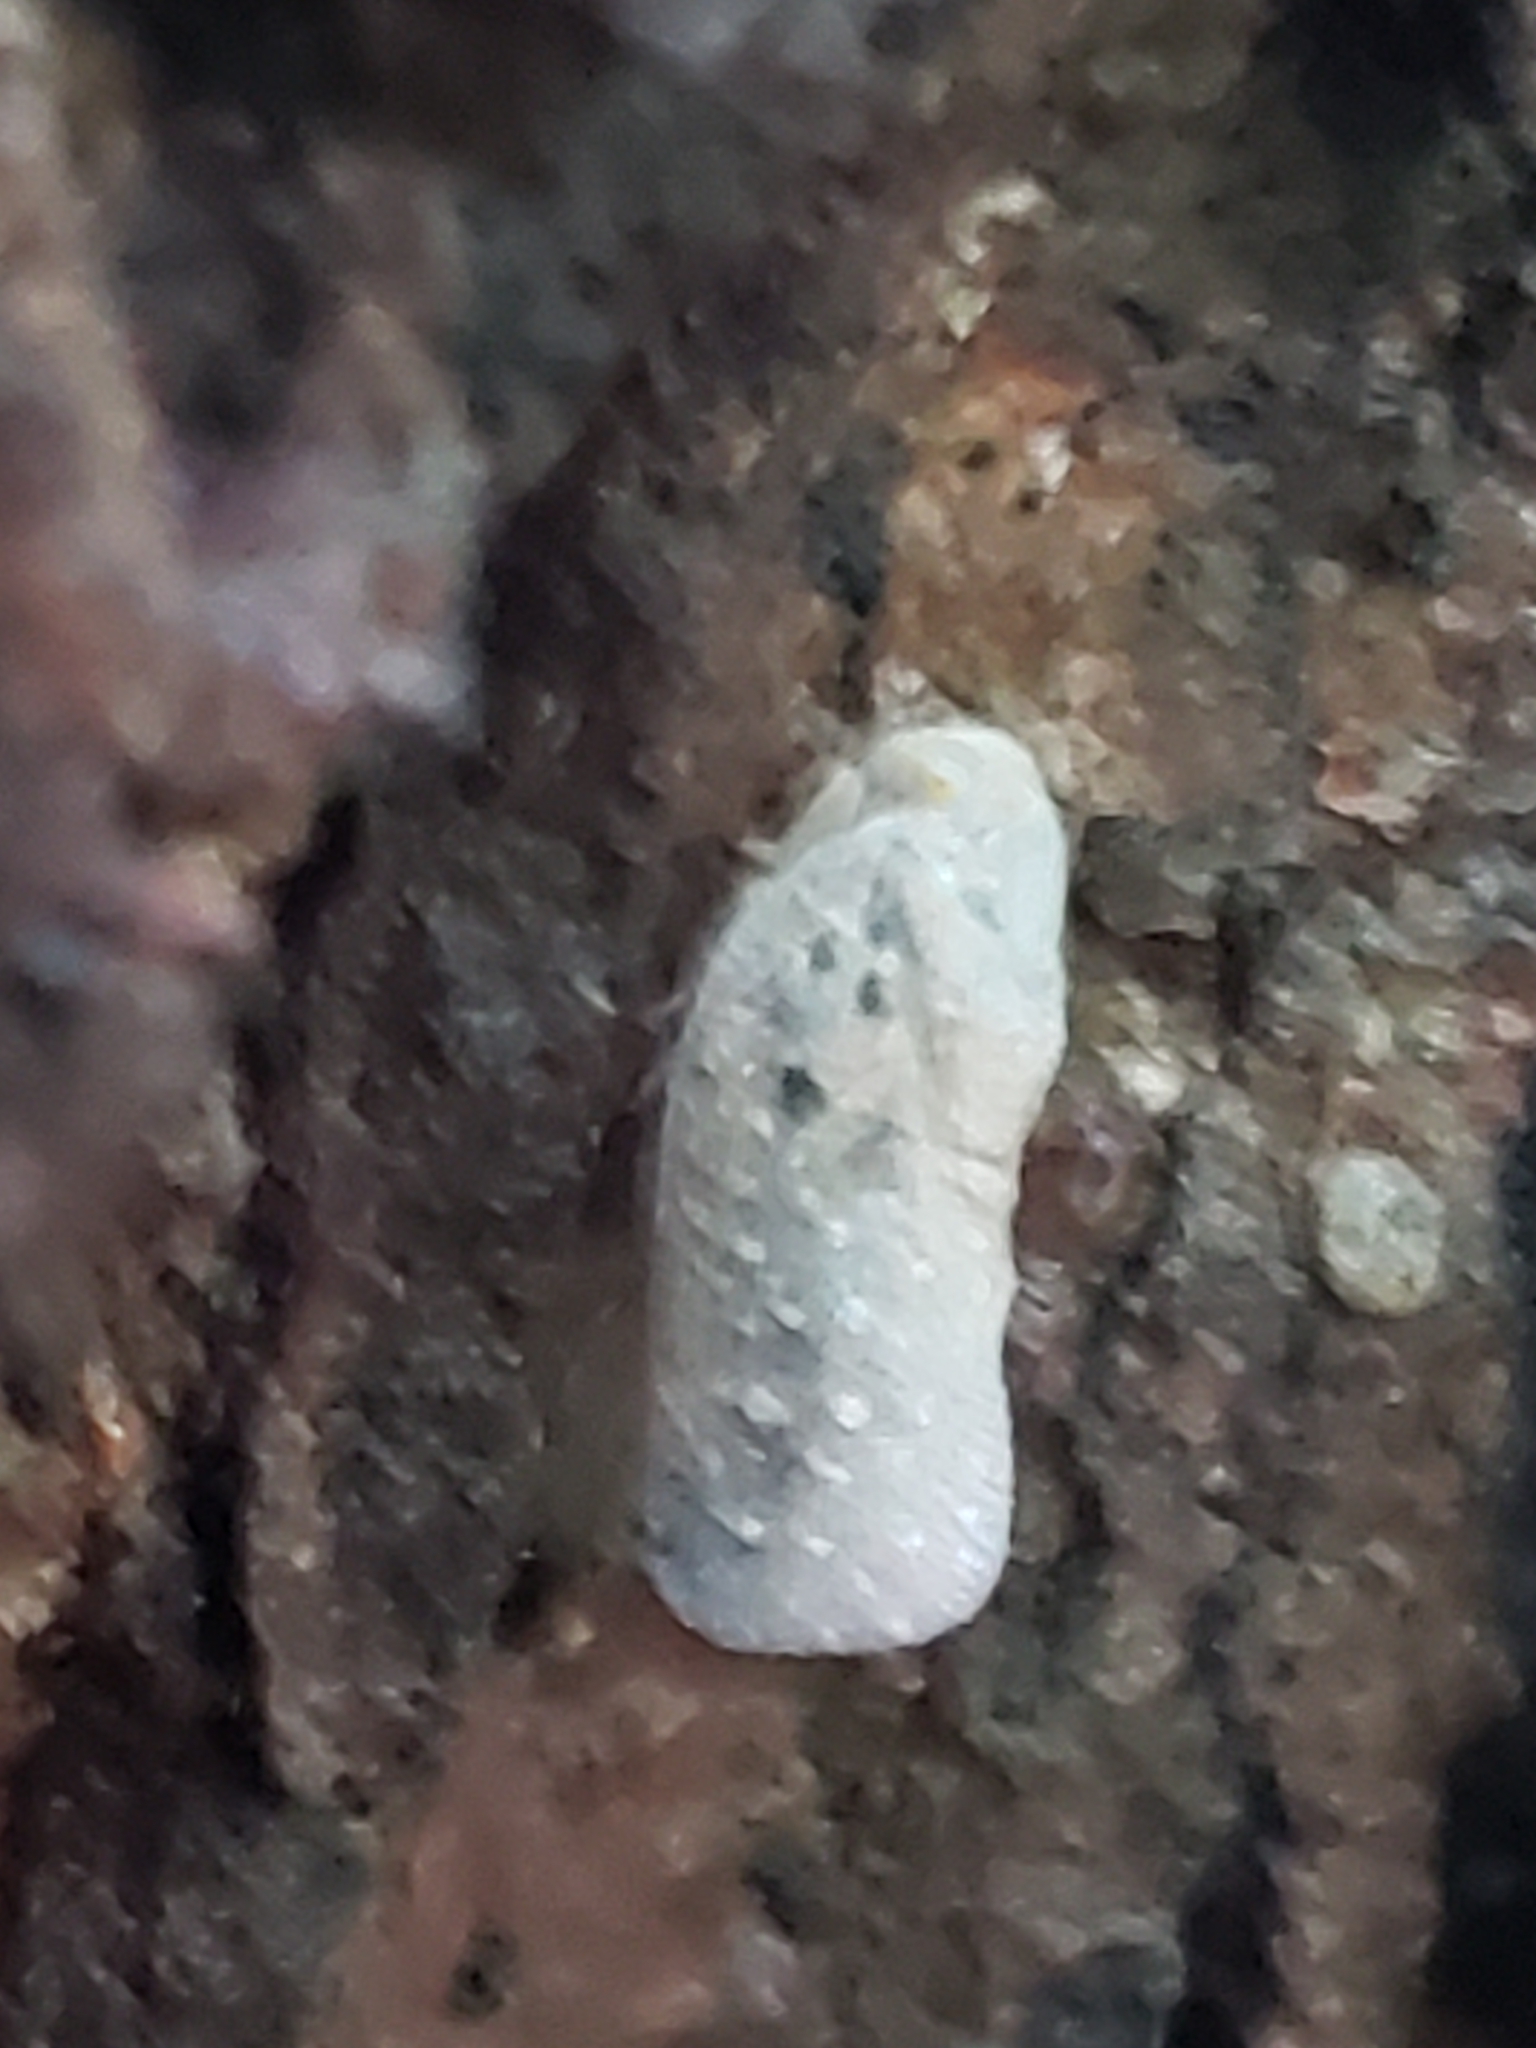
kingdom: Animalia
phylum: Arthropoda
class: Insecta
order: Hemiptera
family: Flatidae
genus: Metcalfa
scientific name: Metcalfa pruinosa
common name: Citrus flatid planthopper
